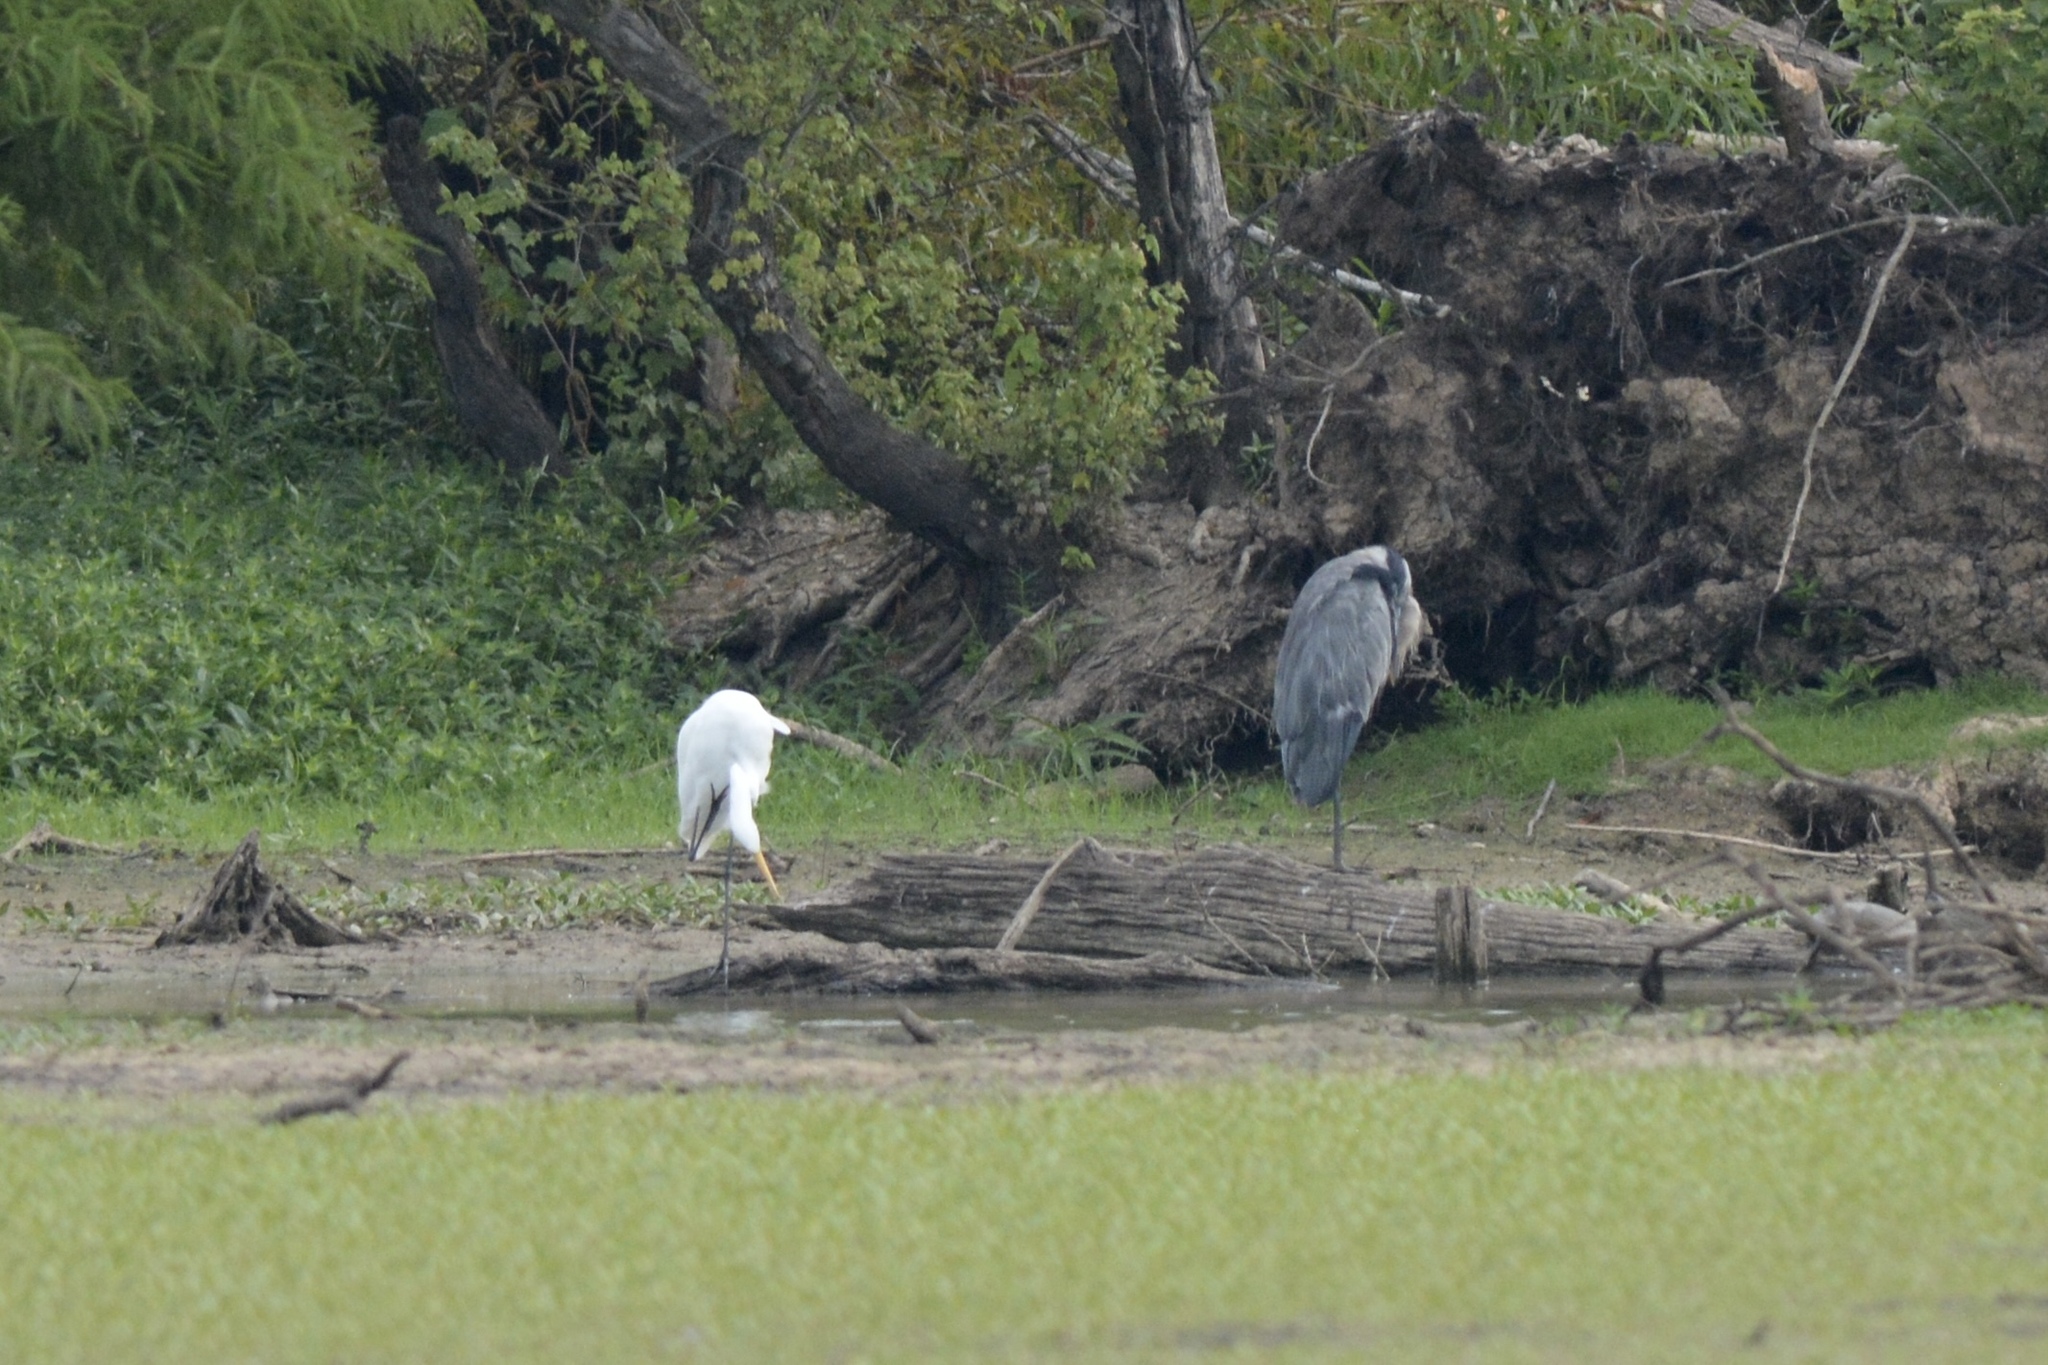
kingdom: Animalia
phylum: Chordata
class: Aves
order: Pelecaniformes
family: Ardeidae
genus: Ardea
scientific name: Ardea herodias
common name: Great blue heron
